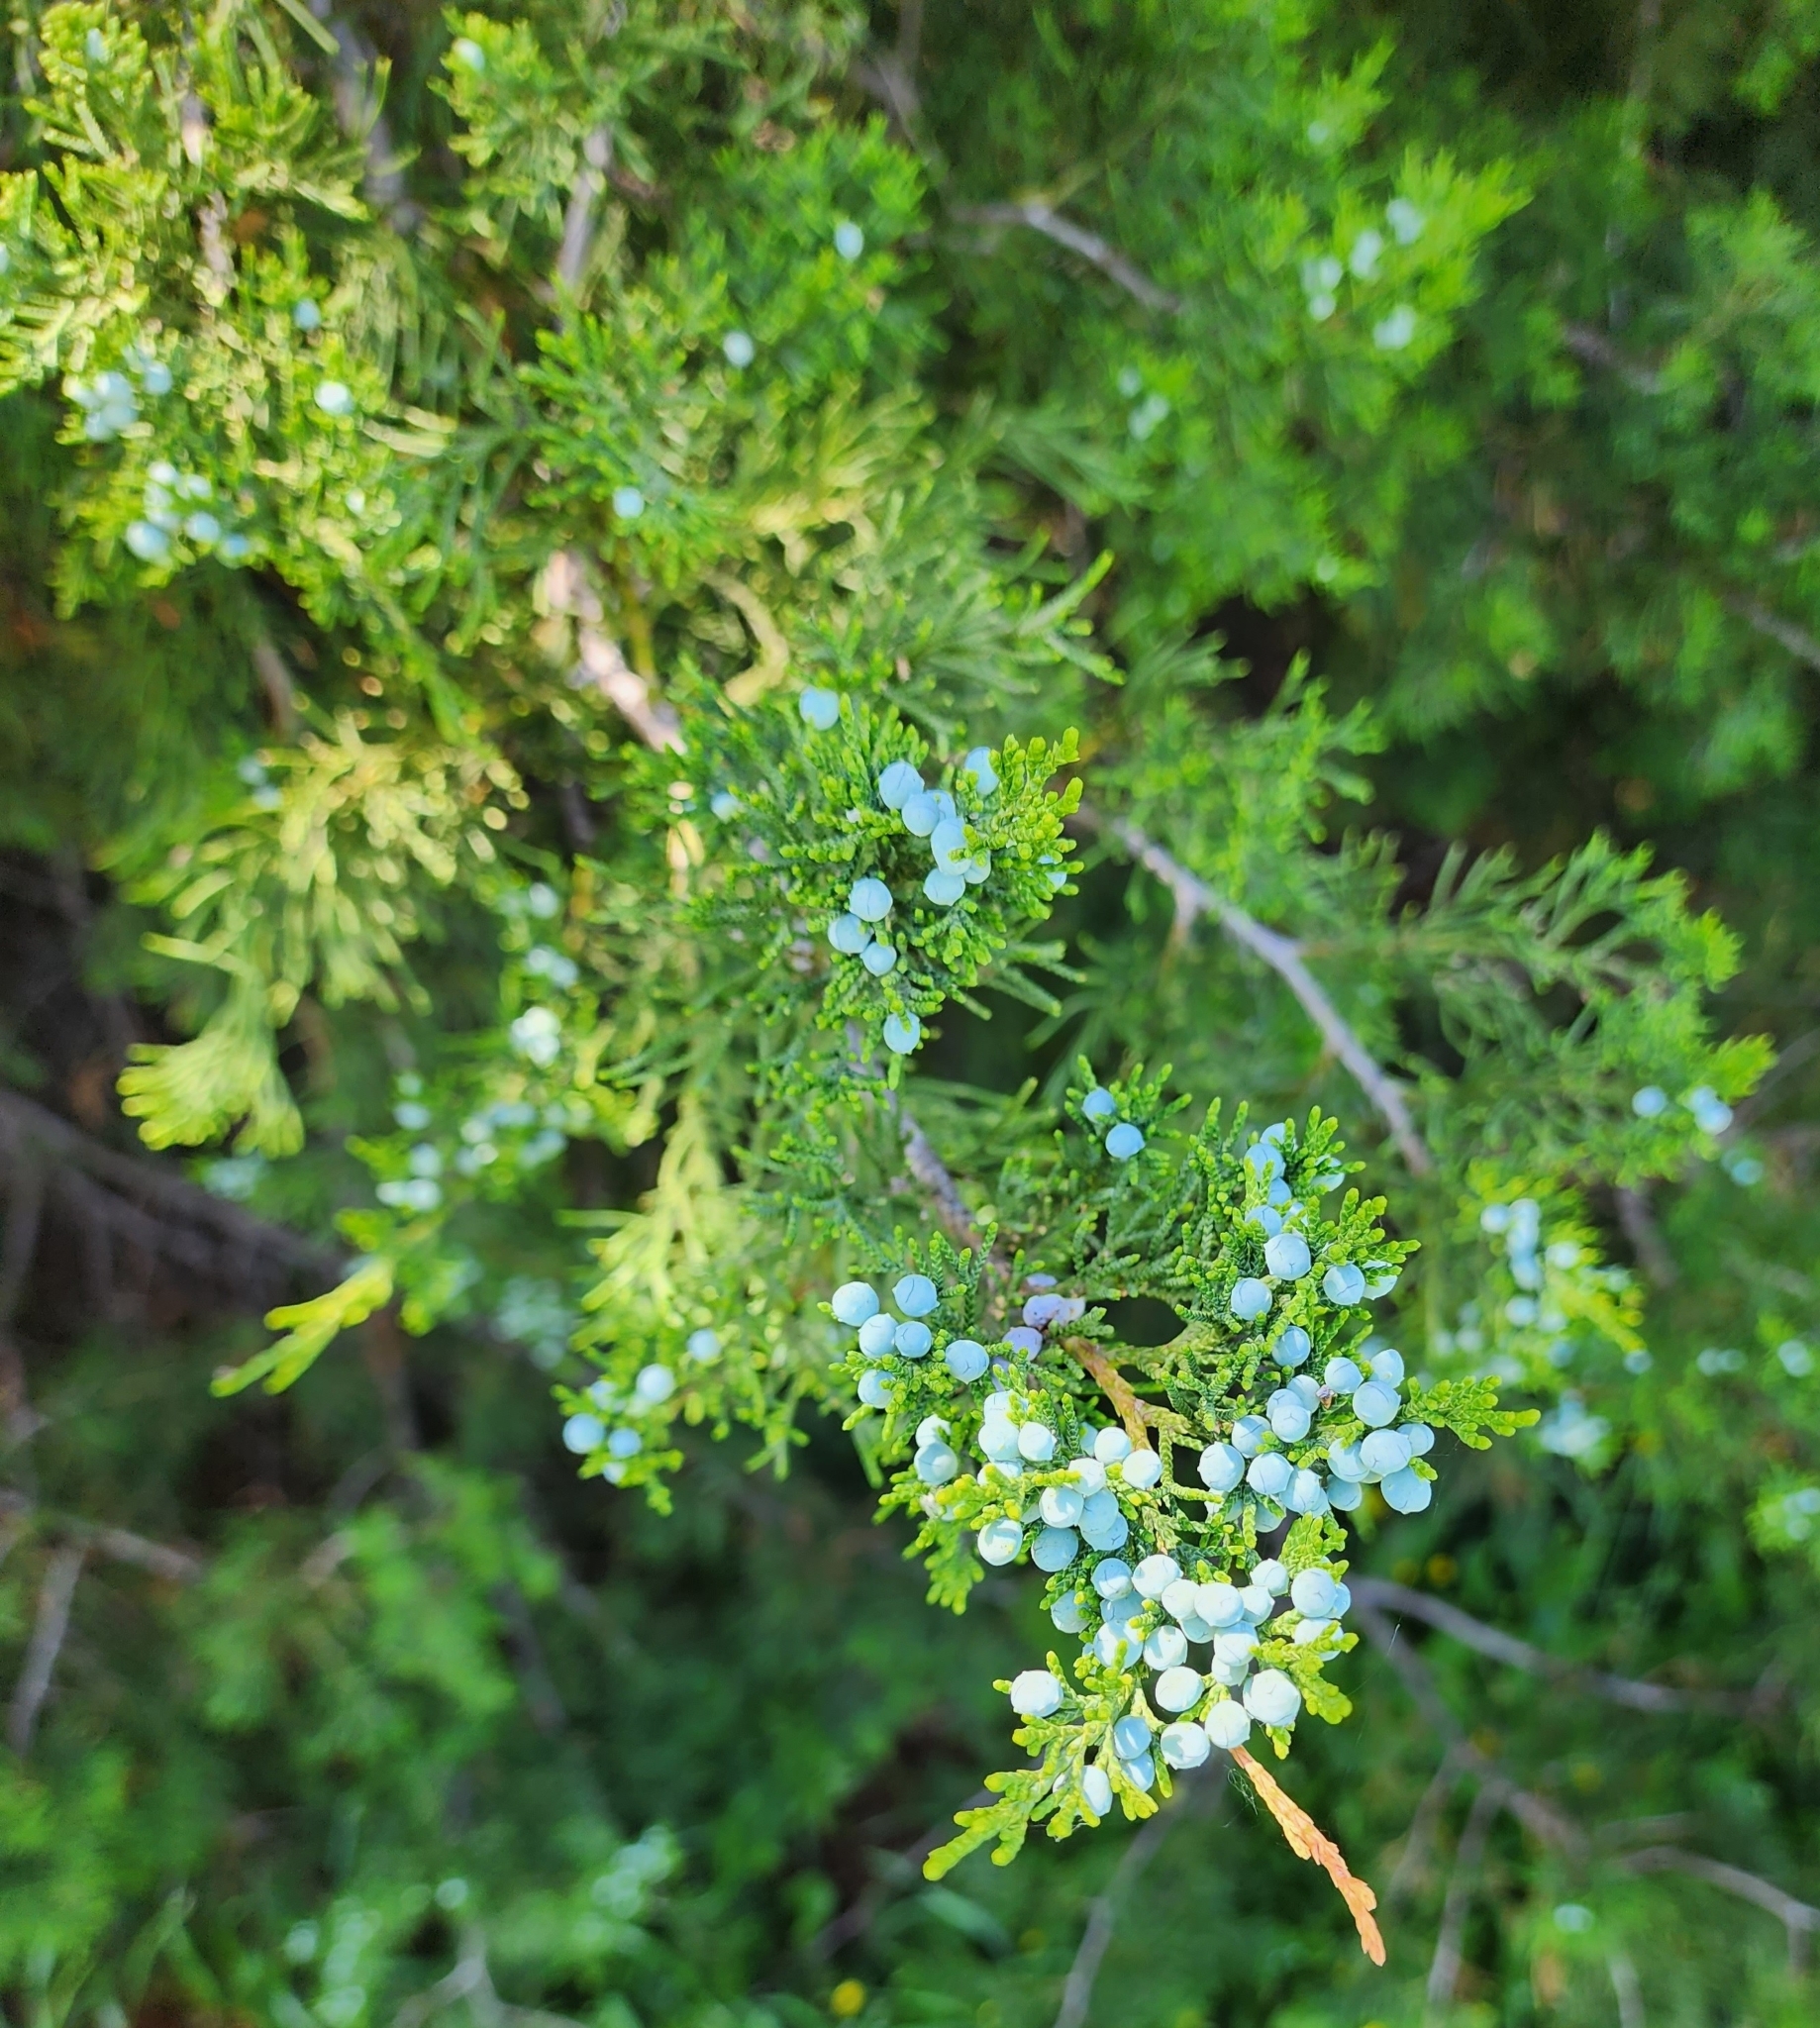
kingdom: Plantae
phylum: Tracheophyta
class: Pinopsida
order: Pinales
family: Cupressaceae
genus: Juniperus
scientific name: Juniperus virginiana
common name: Red juniper
